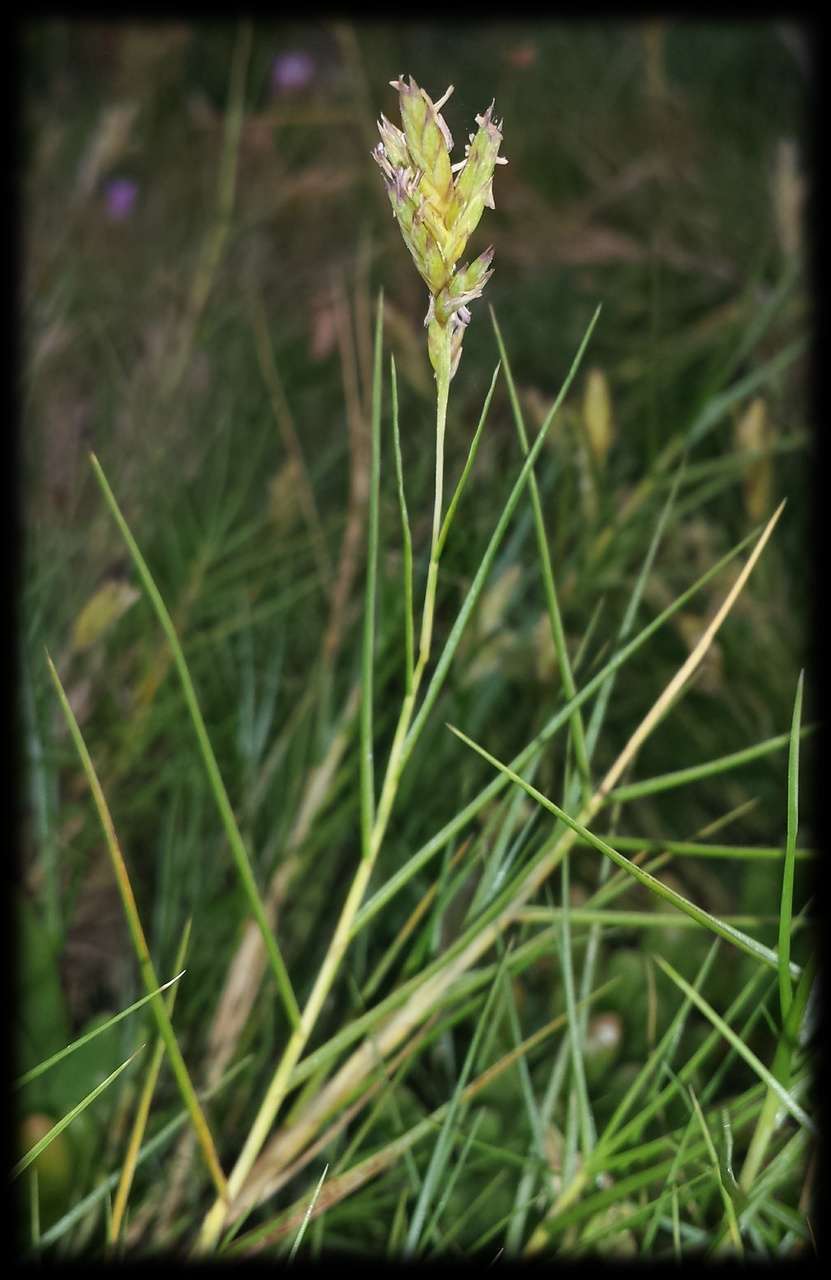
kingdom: Plantae
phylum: Tracheophyta
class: Liliopsida
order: Poales
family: Poaceae
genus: Distichlis
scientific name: Distichlis distichophylla
